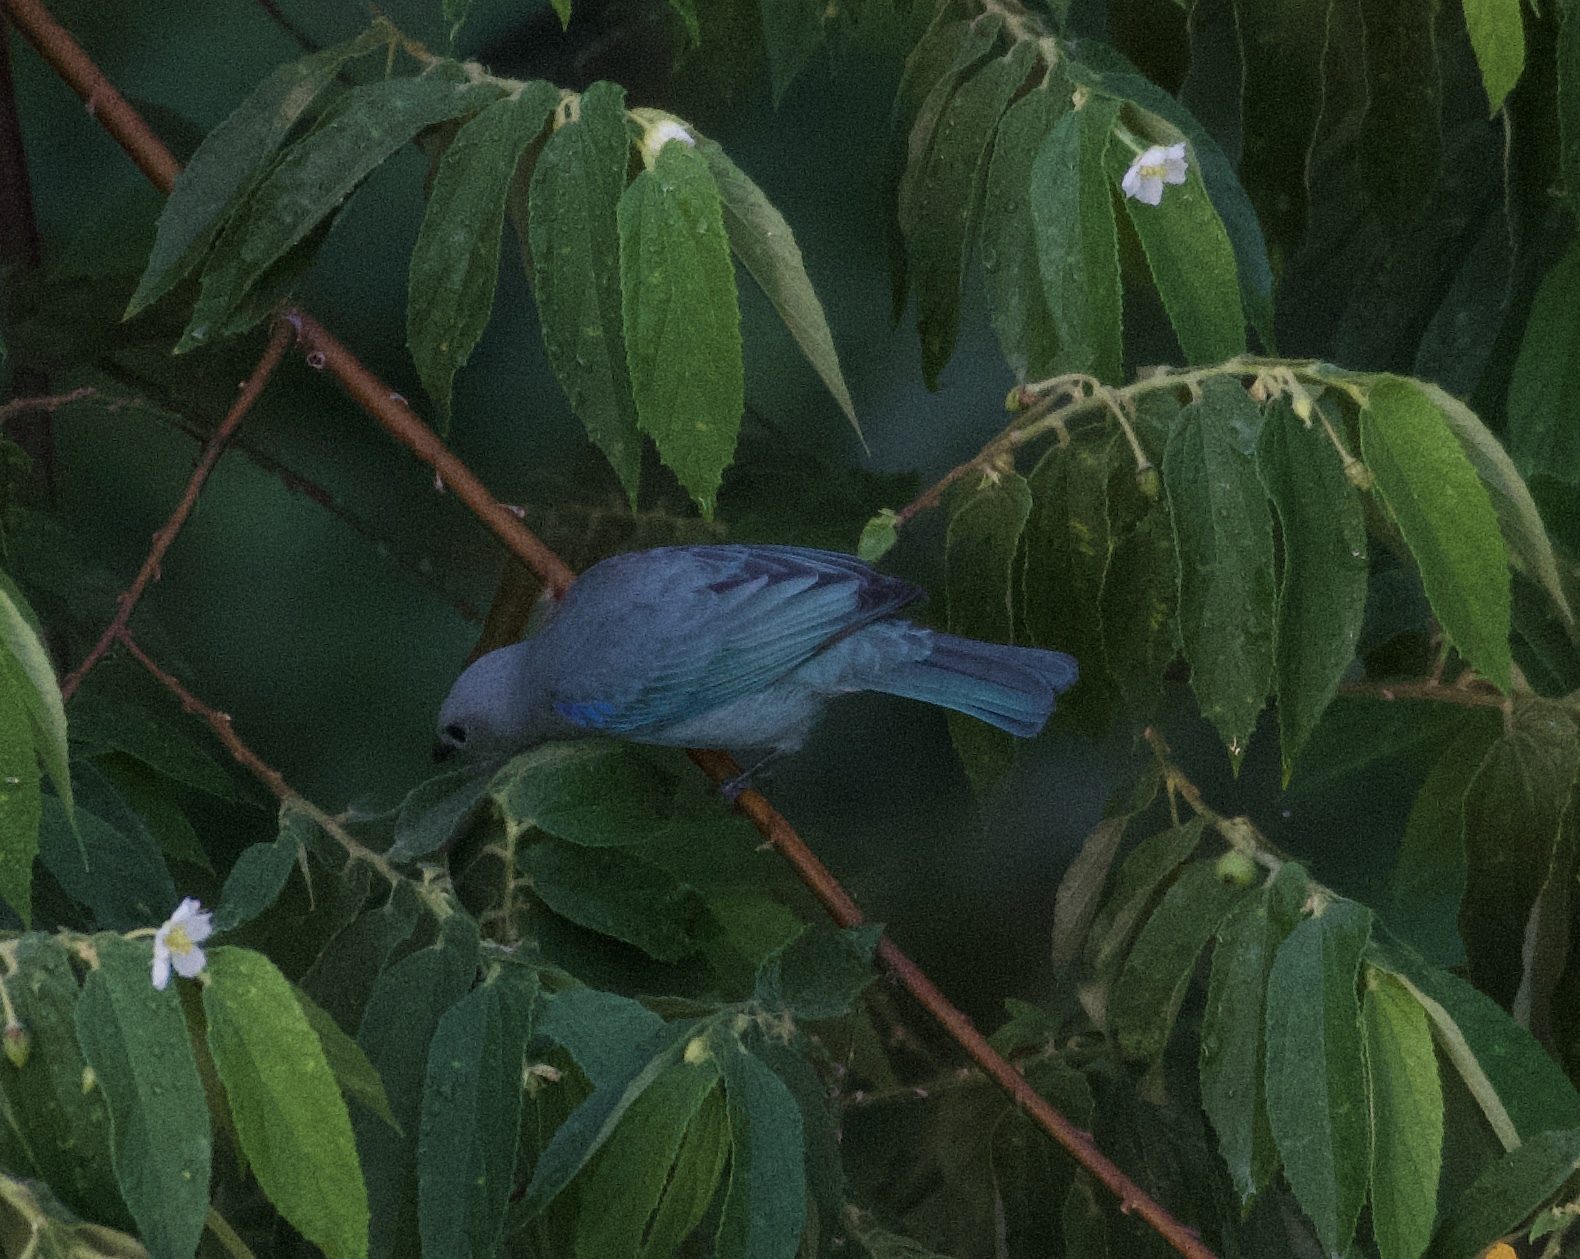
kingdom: Animalia
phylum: Chordata
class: Aves
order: Passeriformes
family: Thraupidae
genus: Thraupis
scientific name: Thraupis episcopus
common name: Blue-grey tanager
